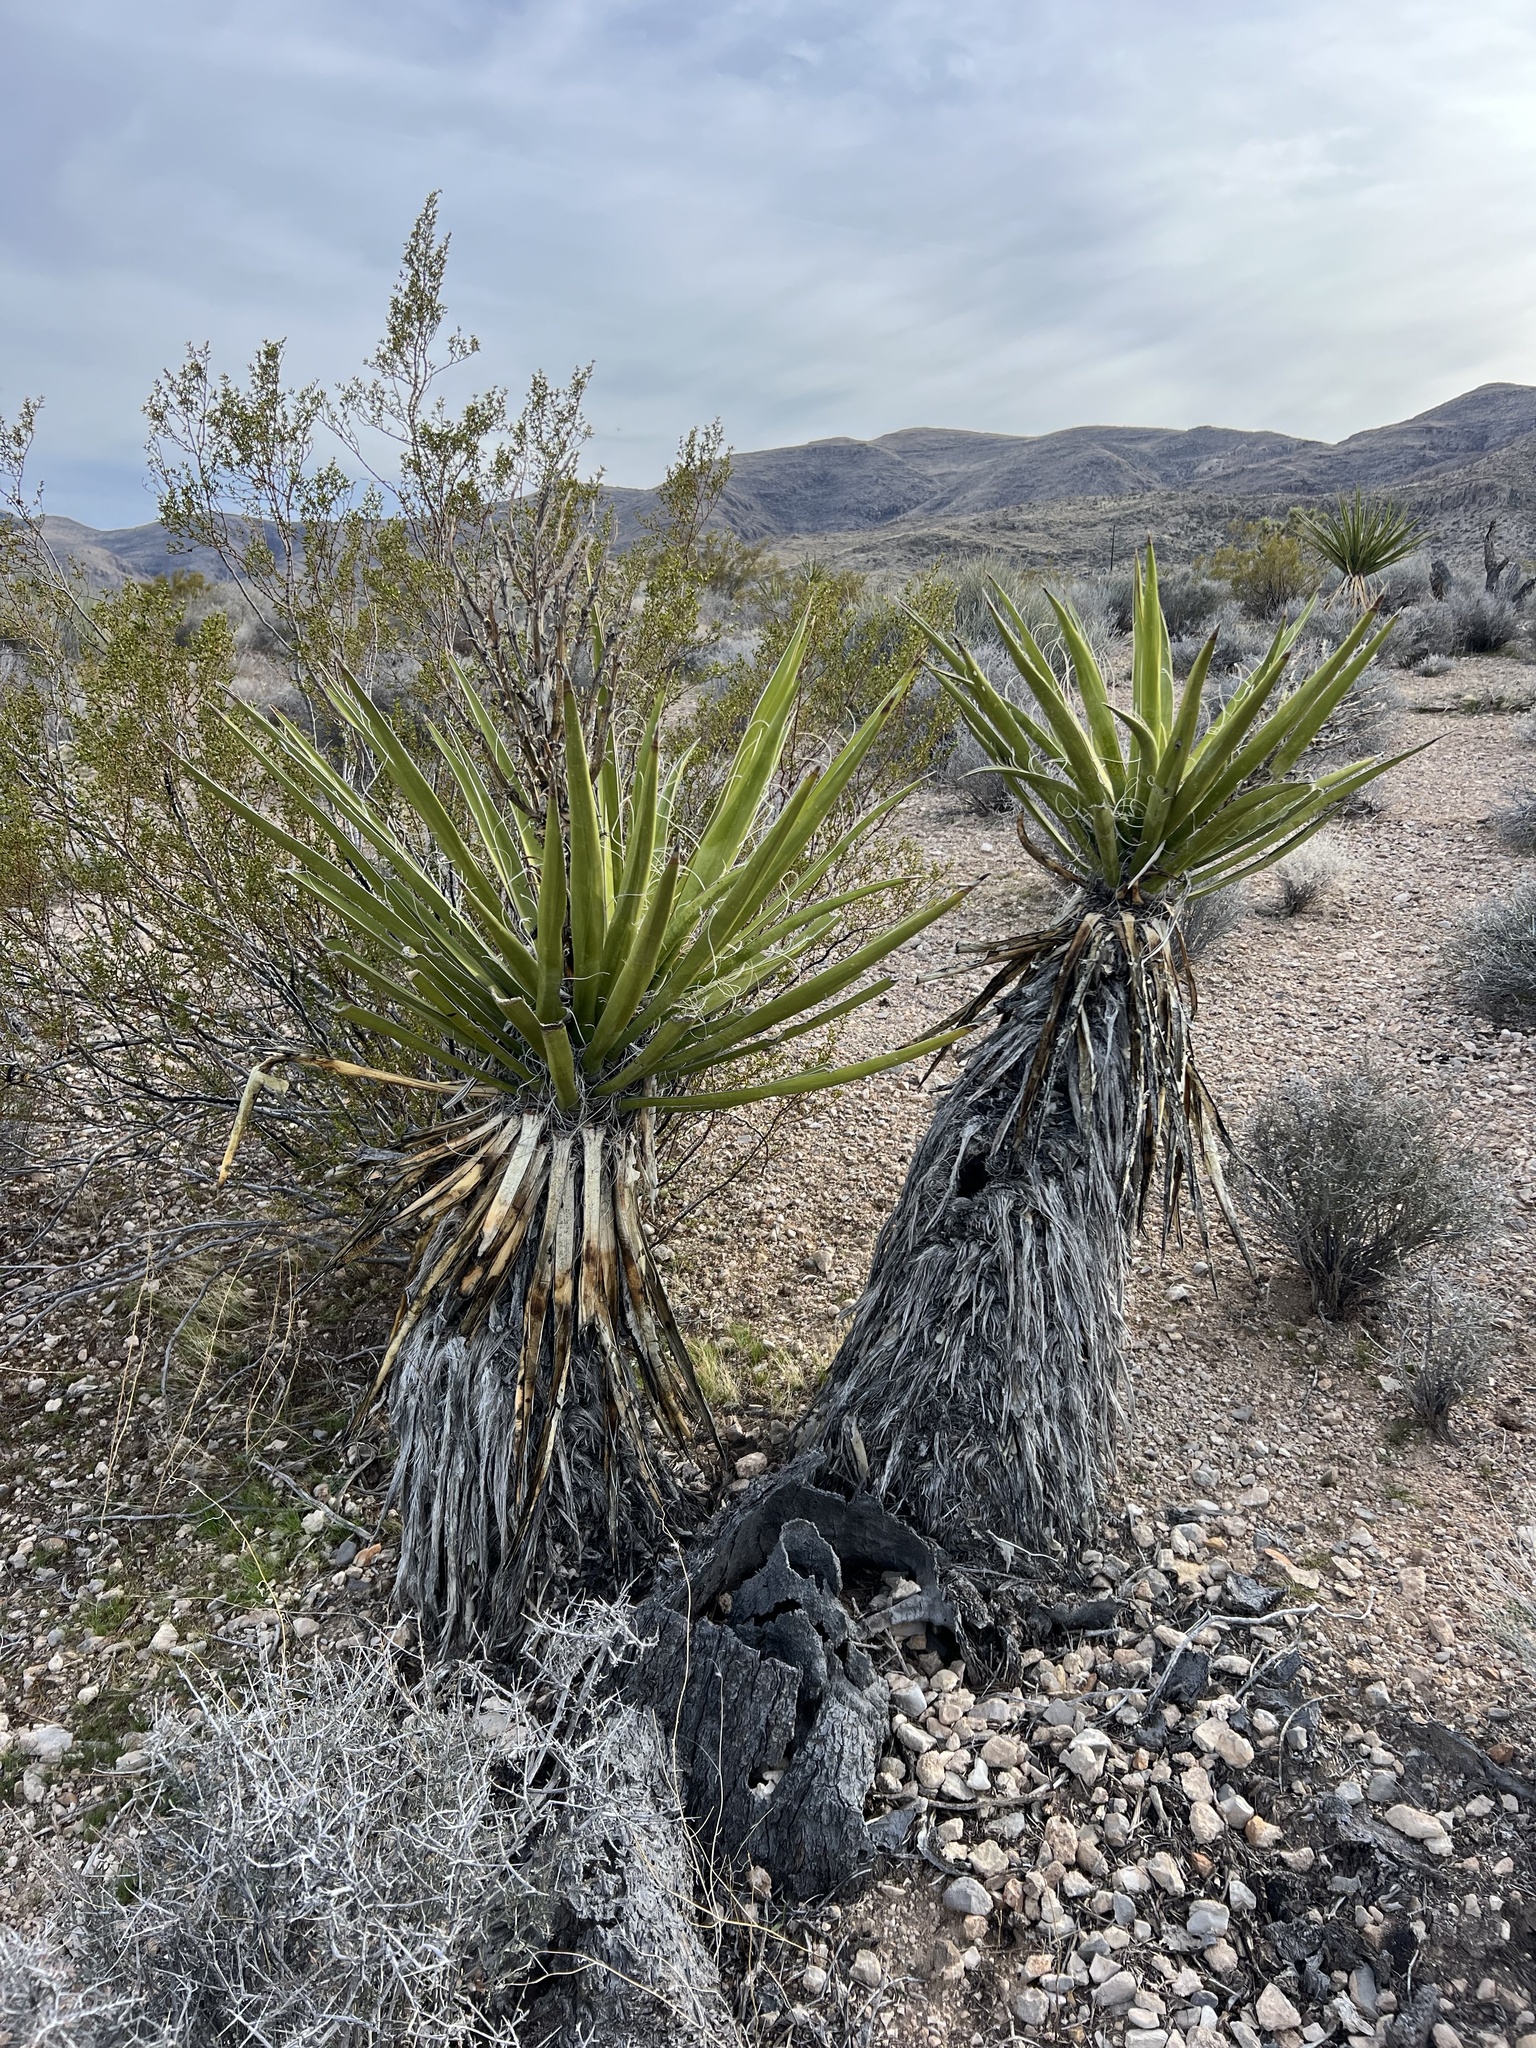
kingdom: Plantae
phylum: Tracheophyta
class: Liliopsida
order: Asparagales
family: Asparagaceae
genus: Yucca
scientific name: Yucca schidigera
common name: Mojave yucca
